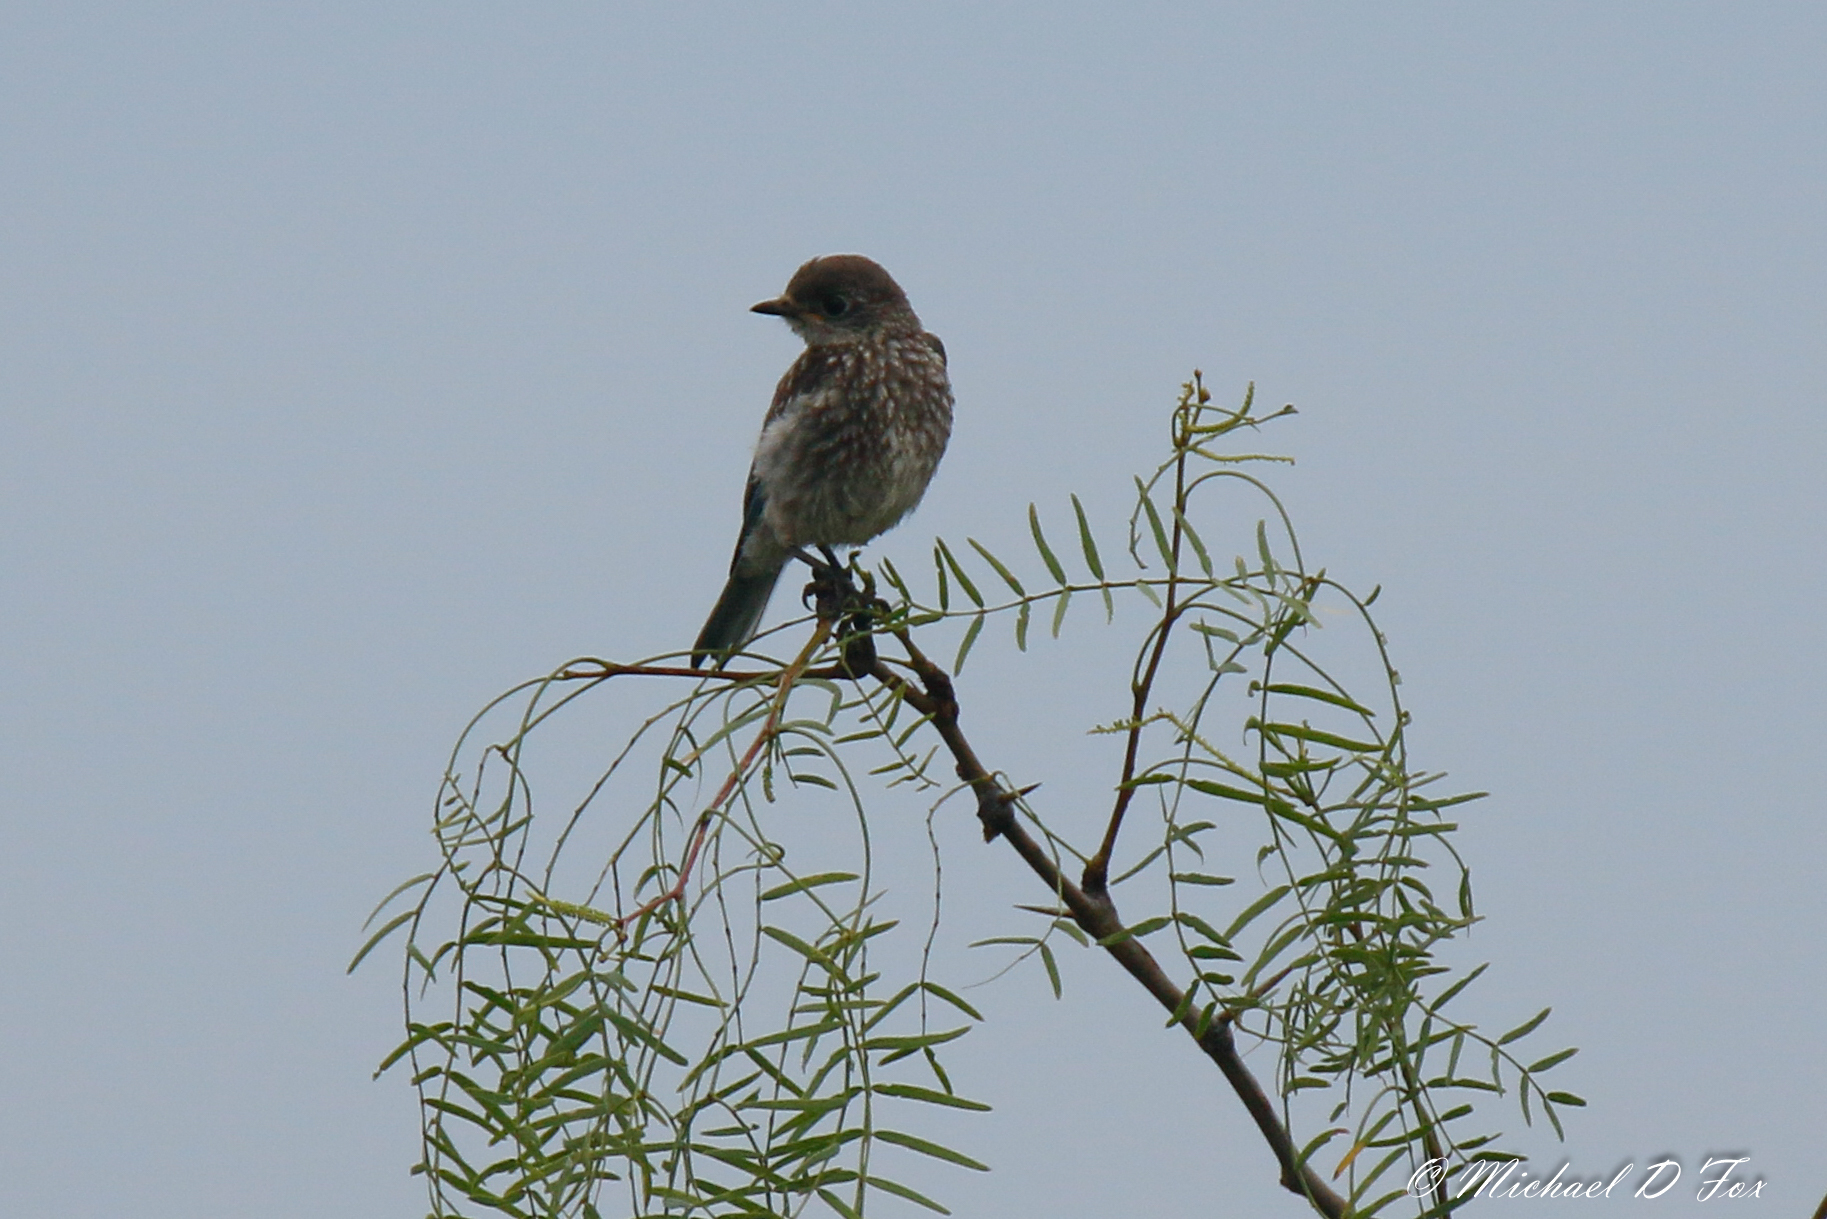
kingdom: Animalia
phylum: Chordata
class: Aves
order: Passeriformes
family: Turdidae
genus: Sialia
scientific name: Sialia sialis
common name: Eastern bluebird
